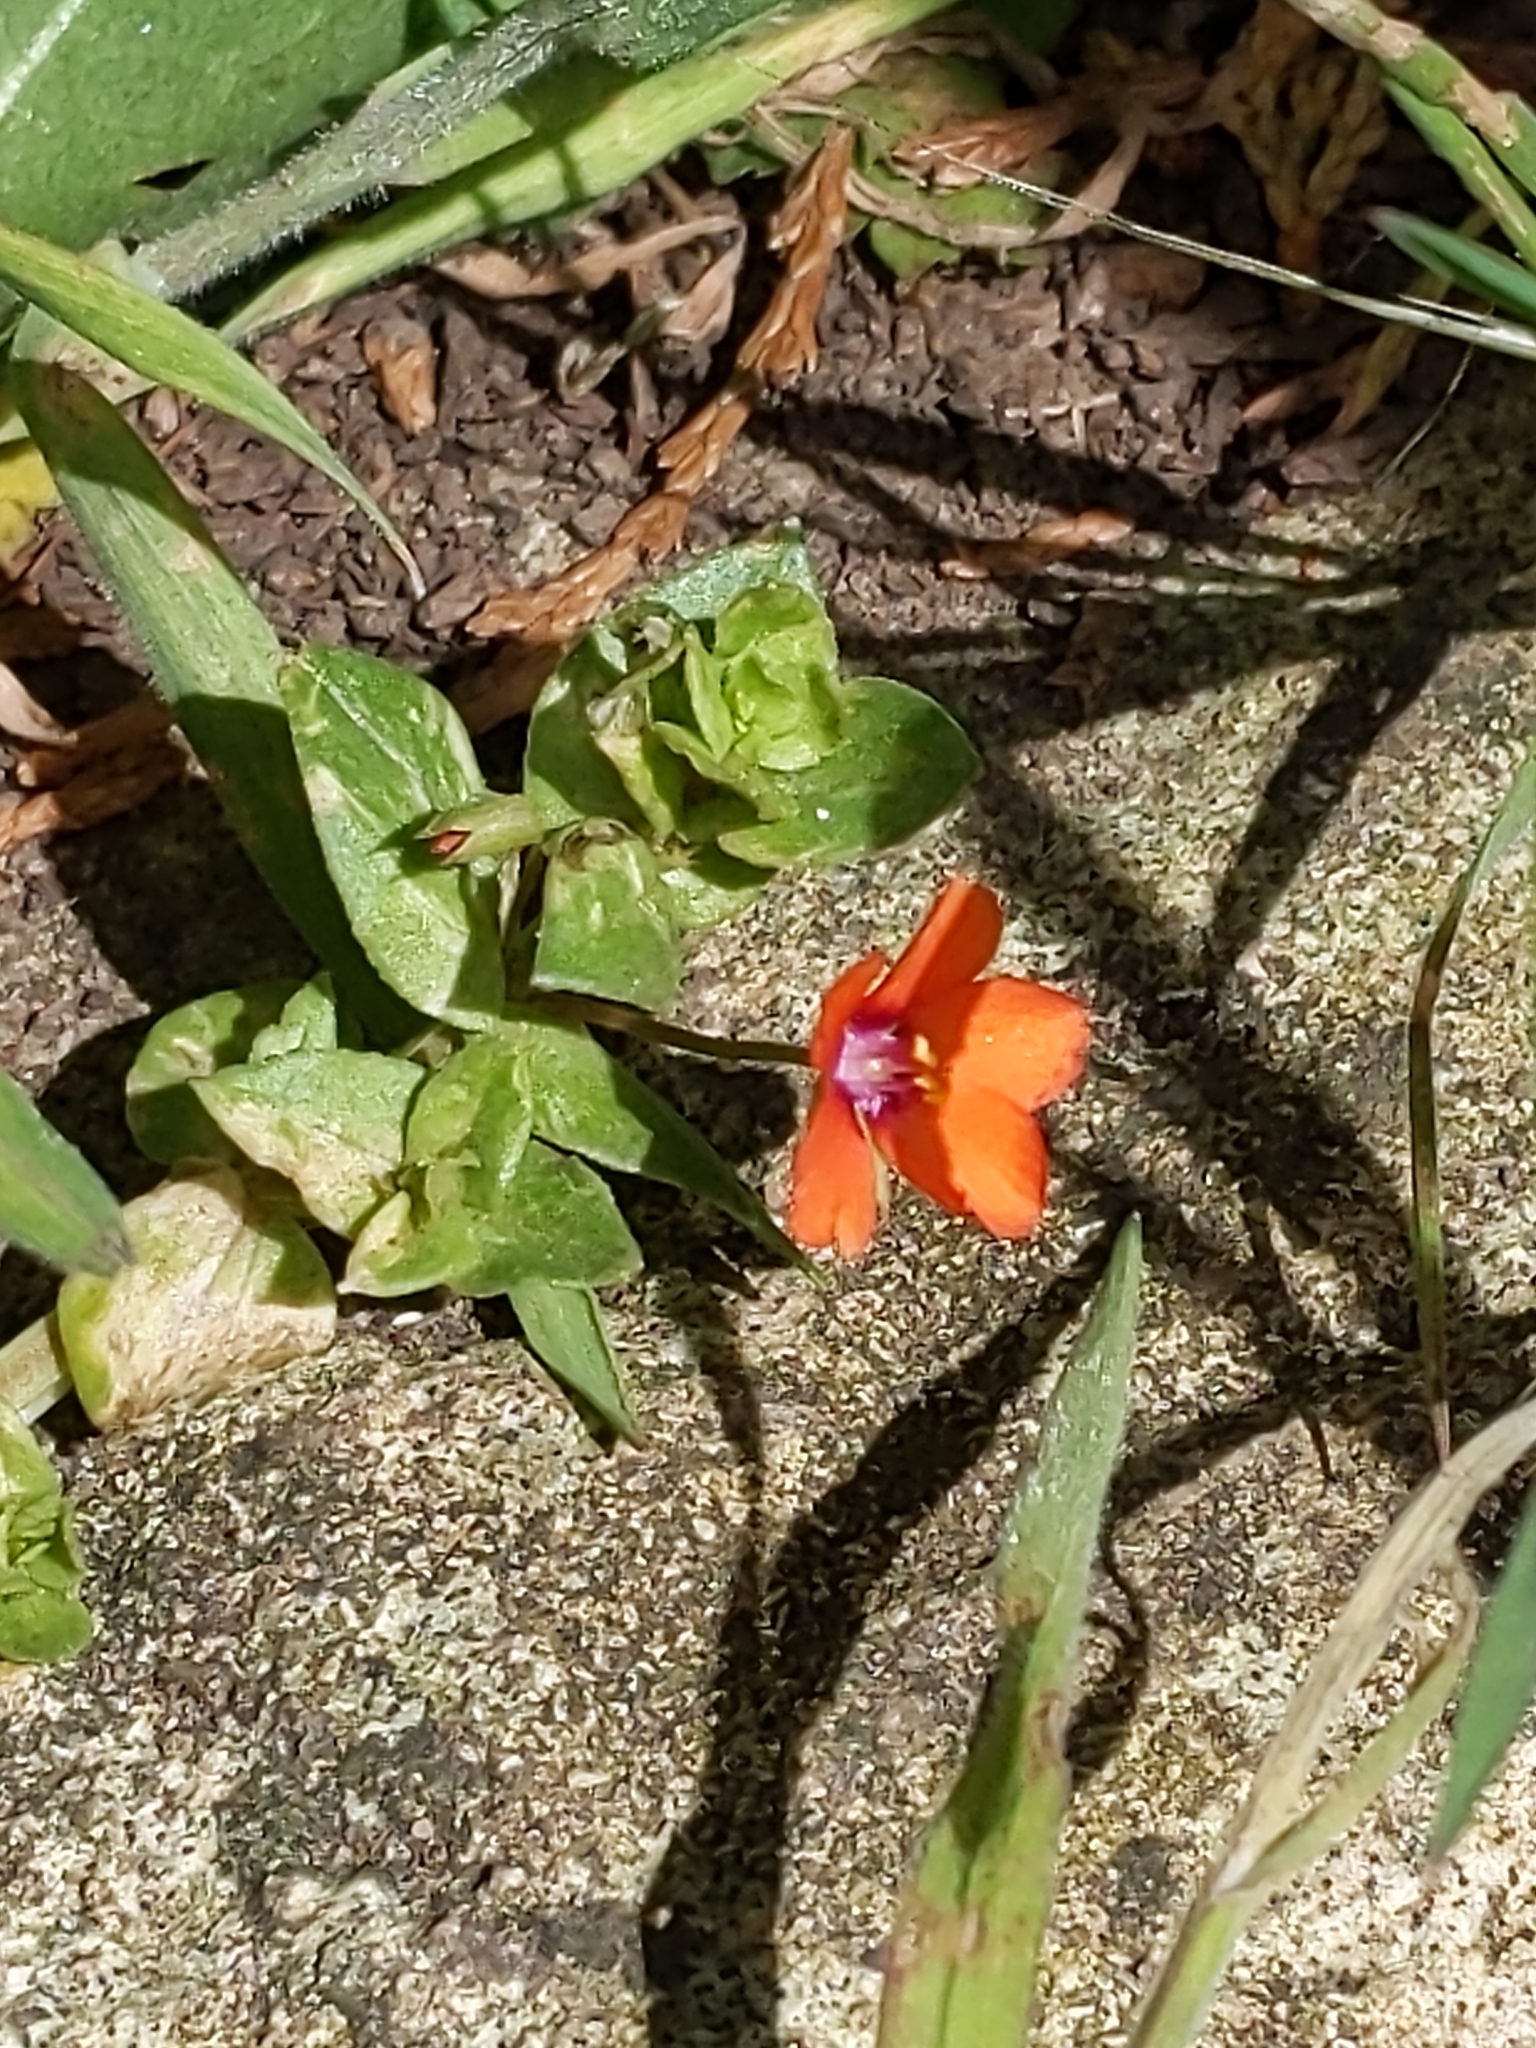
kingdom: Plantae
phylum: Tracheophyta
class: Magnoliopsida
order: Ericales
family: Primulaceae
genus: Lysimachia
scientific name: Lysimachia arvensis
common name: Scarlet pimpernel
